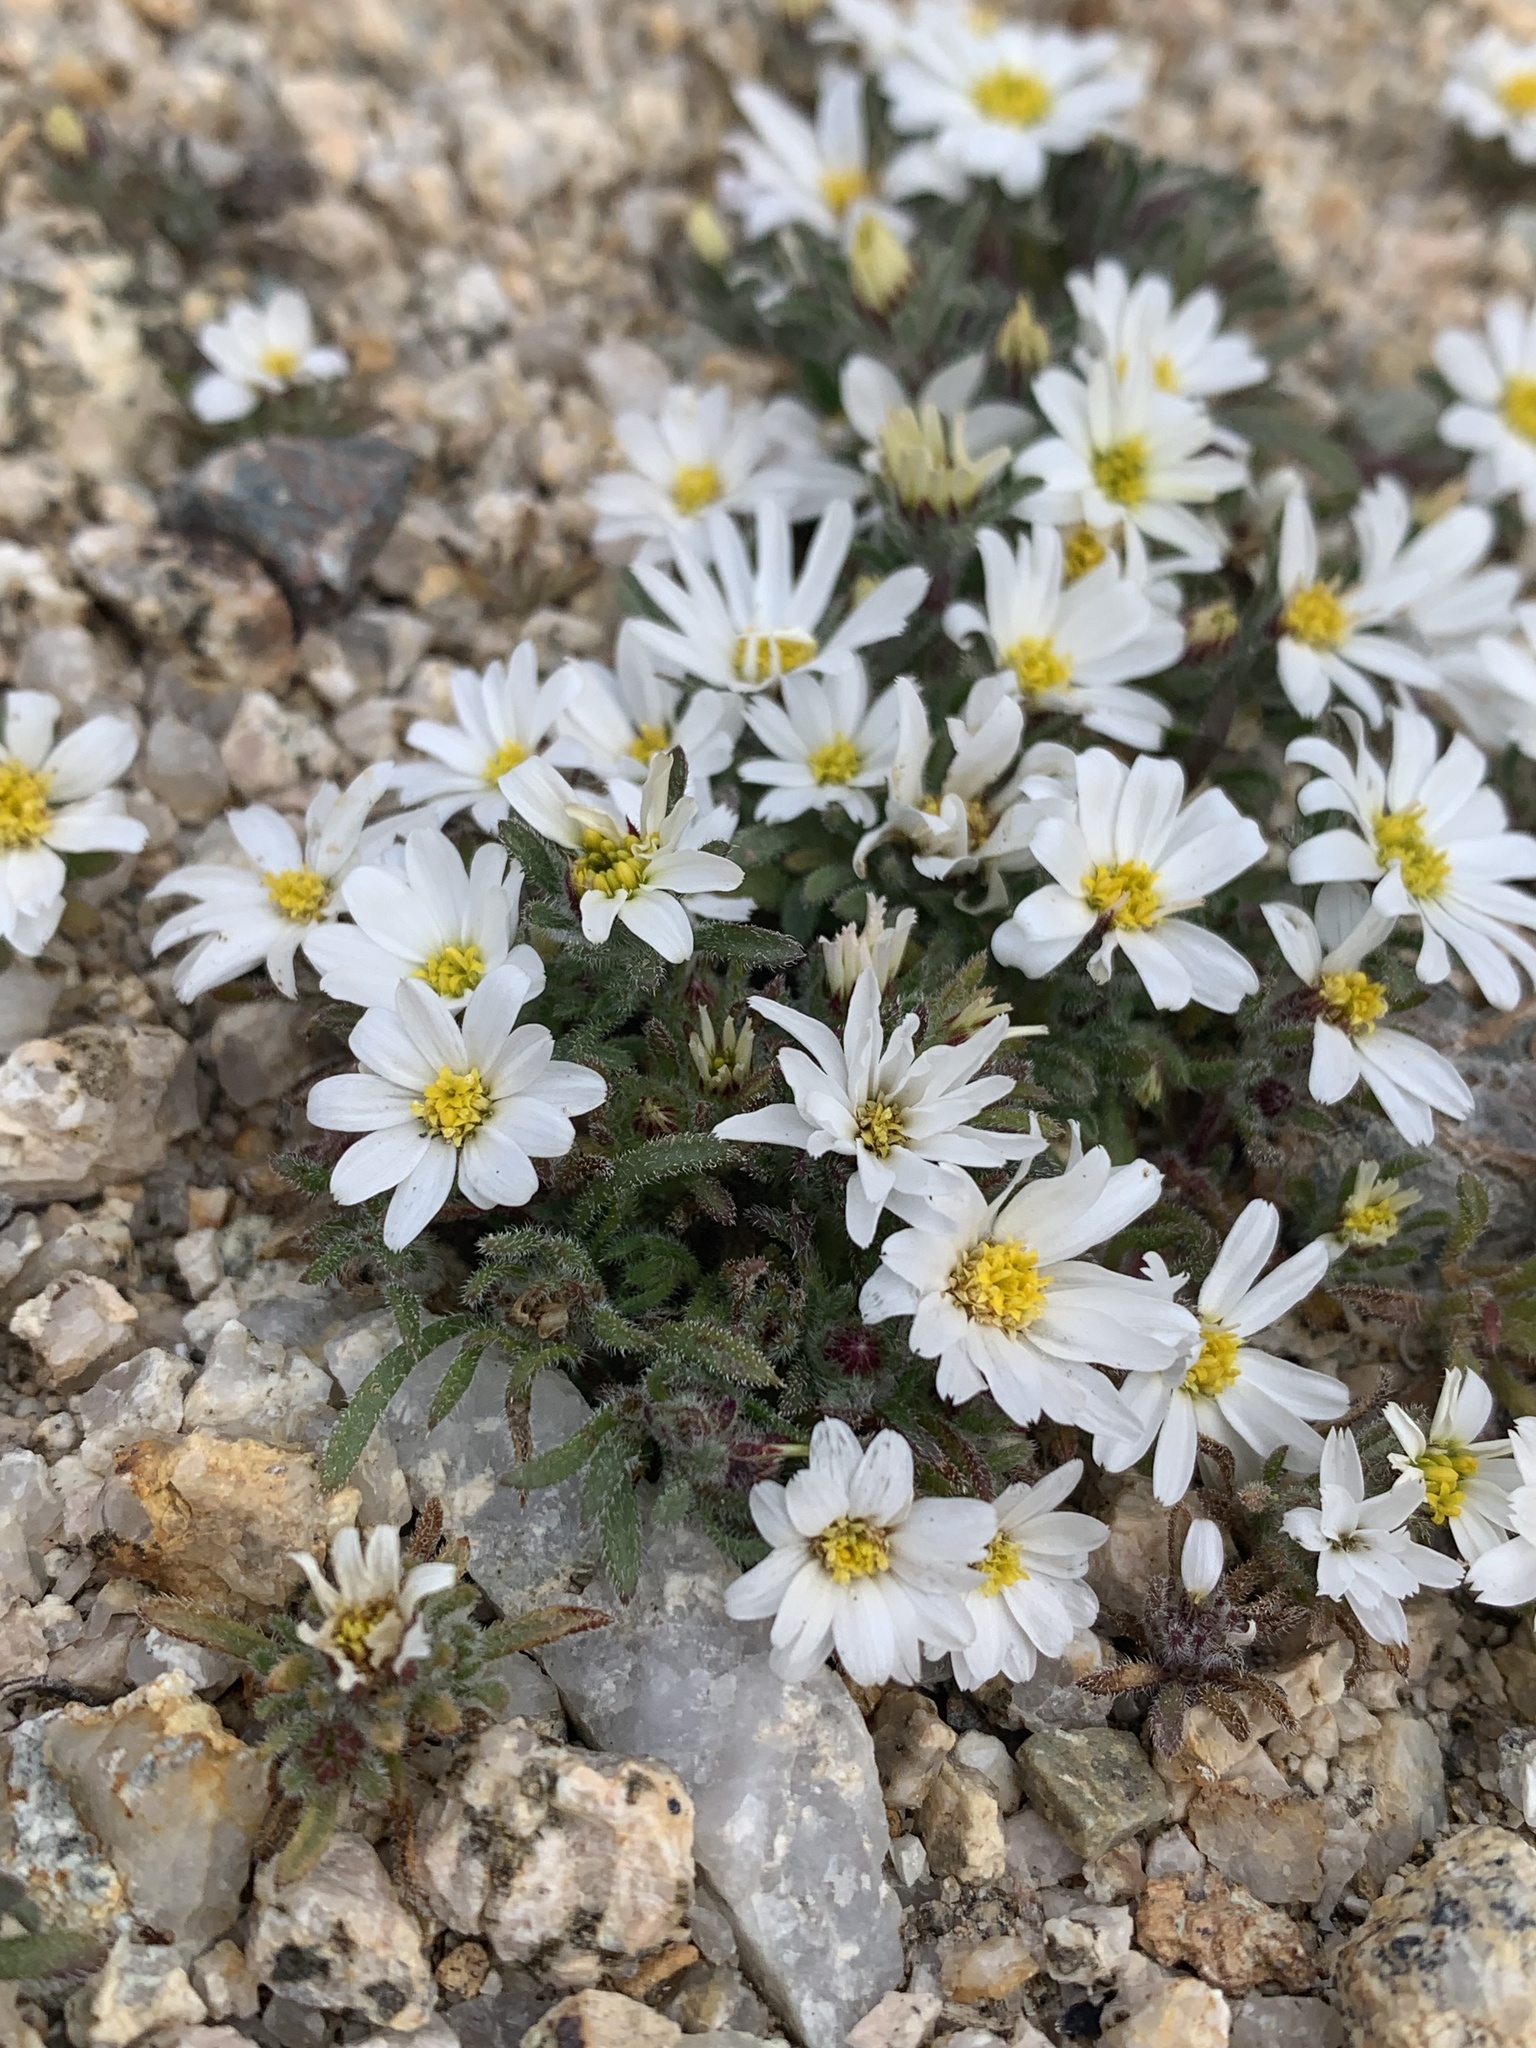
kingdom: Plantae
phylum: Tracheophyta
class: Magnoliopsida
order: Asterales
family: Asteraceae
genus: Monoptilon
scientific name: Monoptilon bellioides
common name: Bristly desertstar
